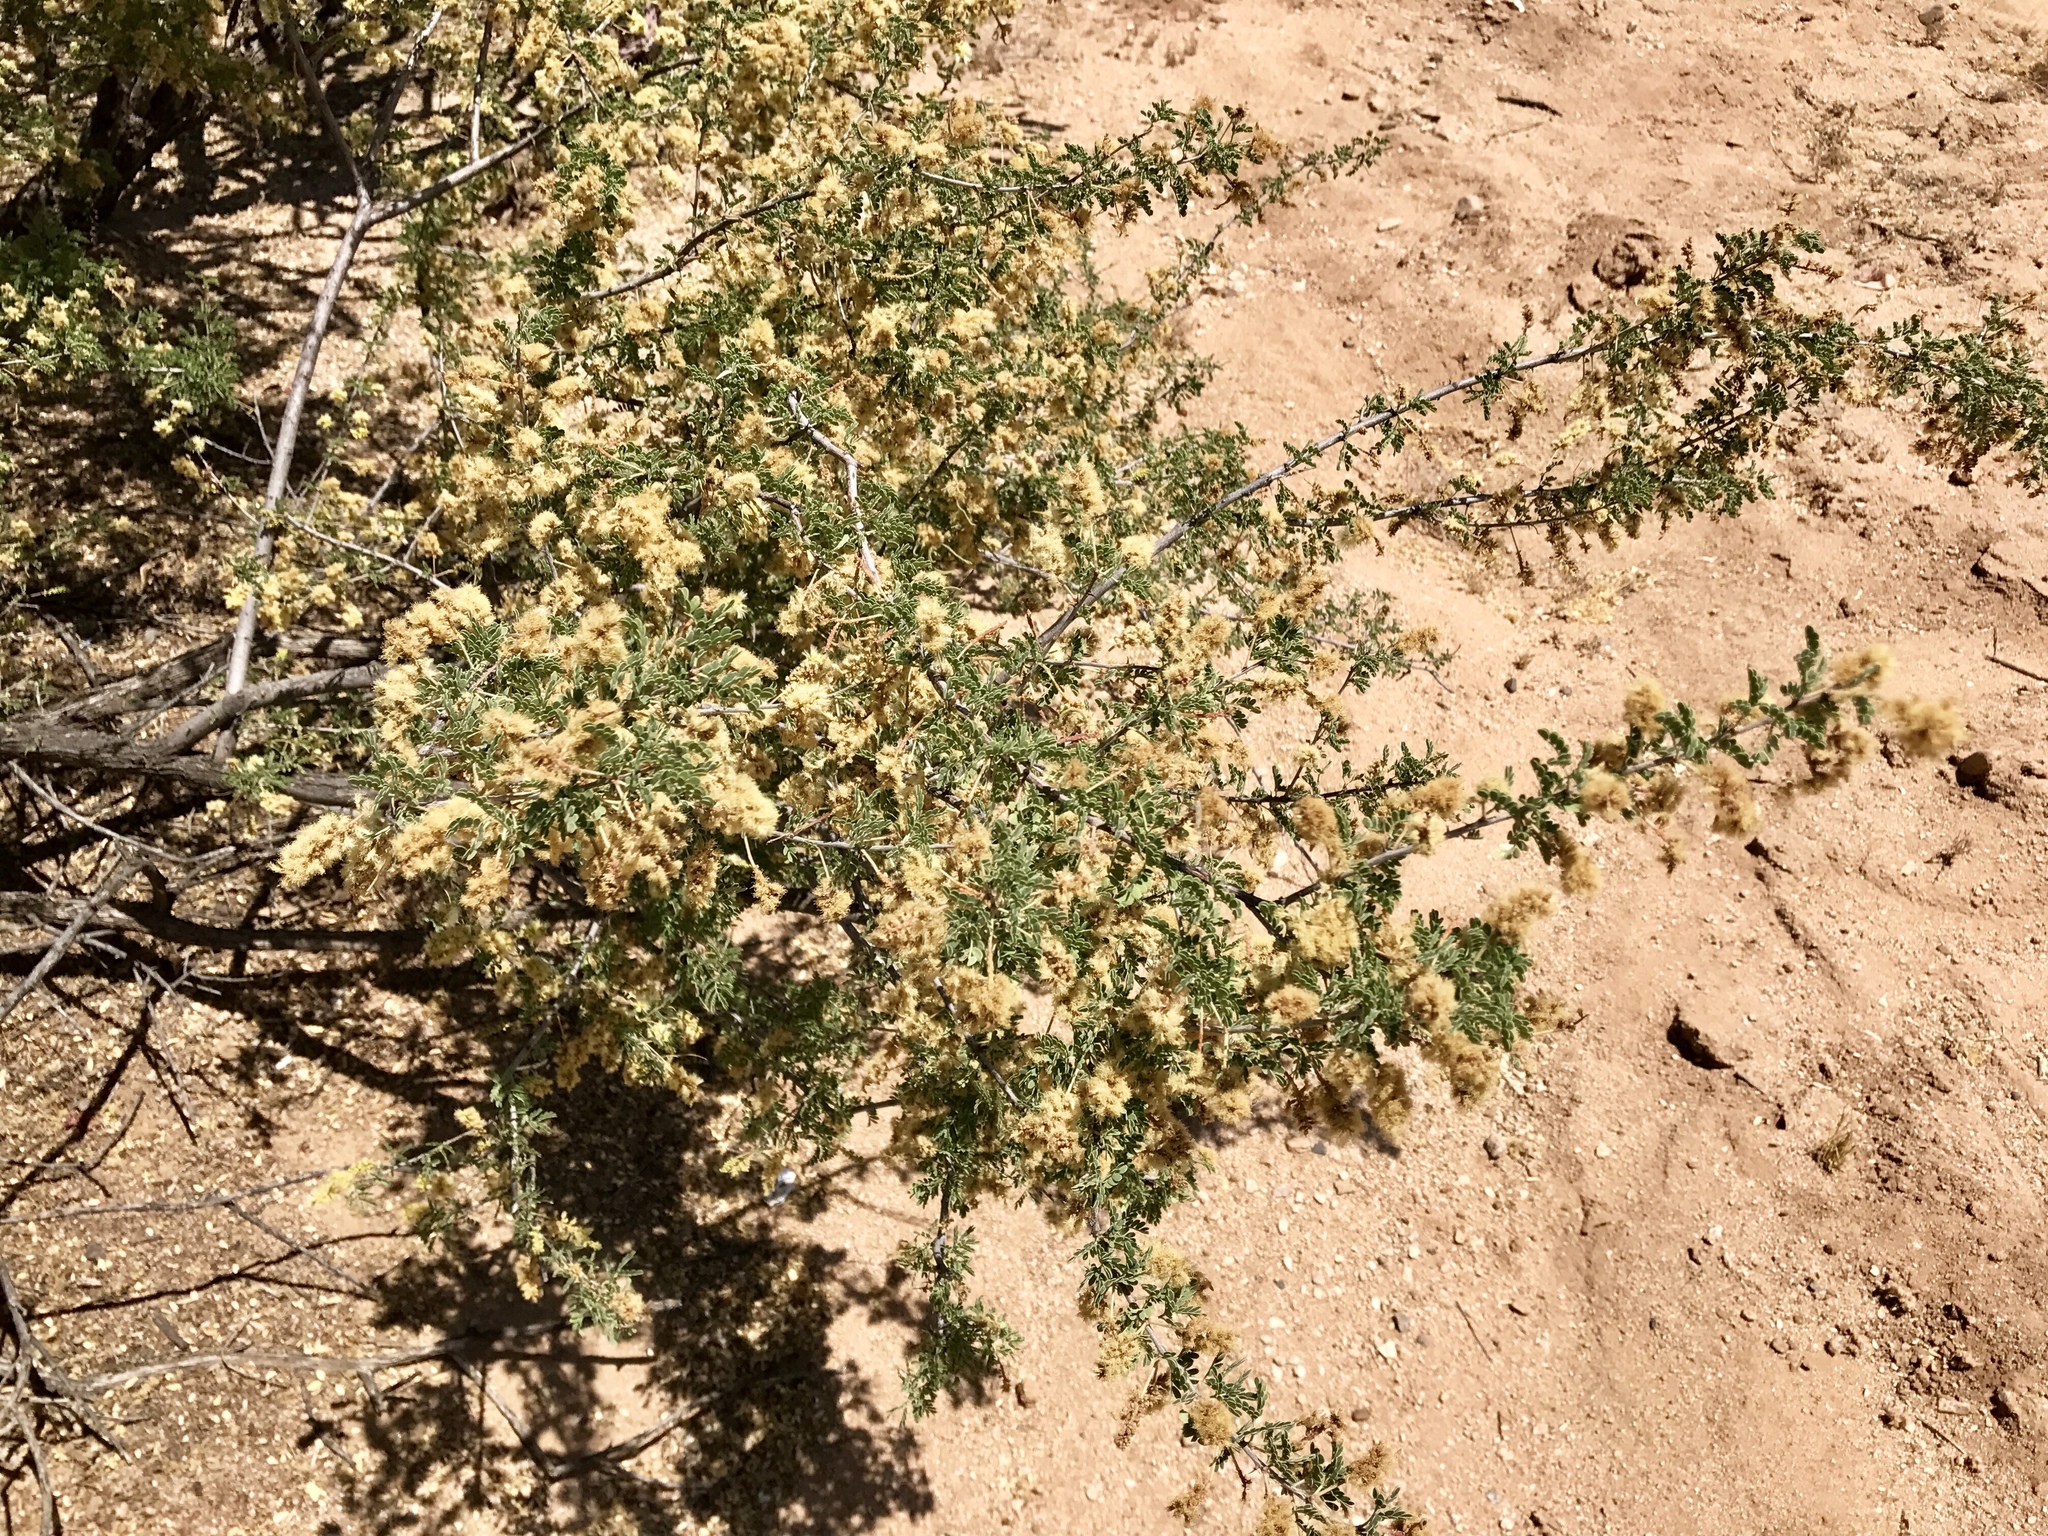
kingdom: Plantae
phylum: Tracheophyta
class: Magnoliopsida
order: Fabales
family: Fabaceae
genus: Senegalia
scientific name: Senegalia greggii
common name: Texas-mimosa
